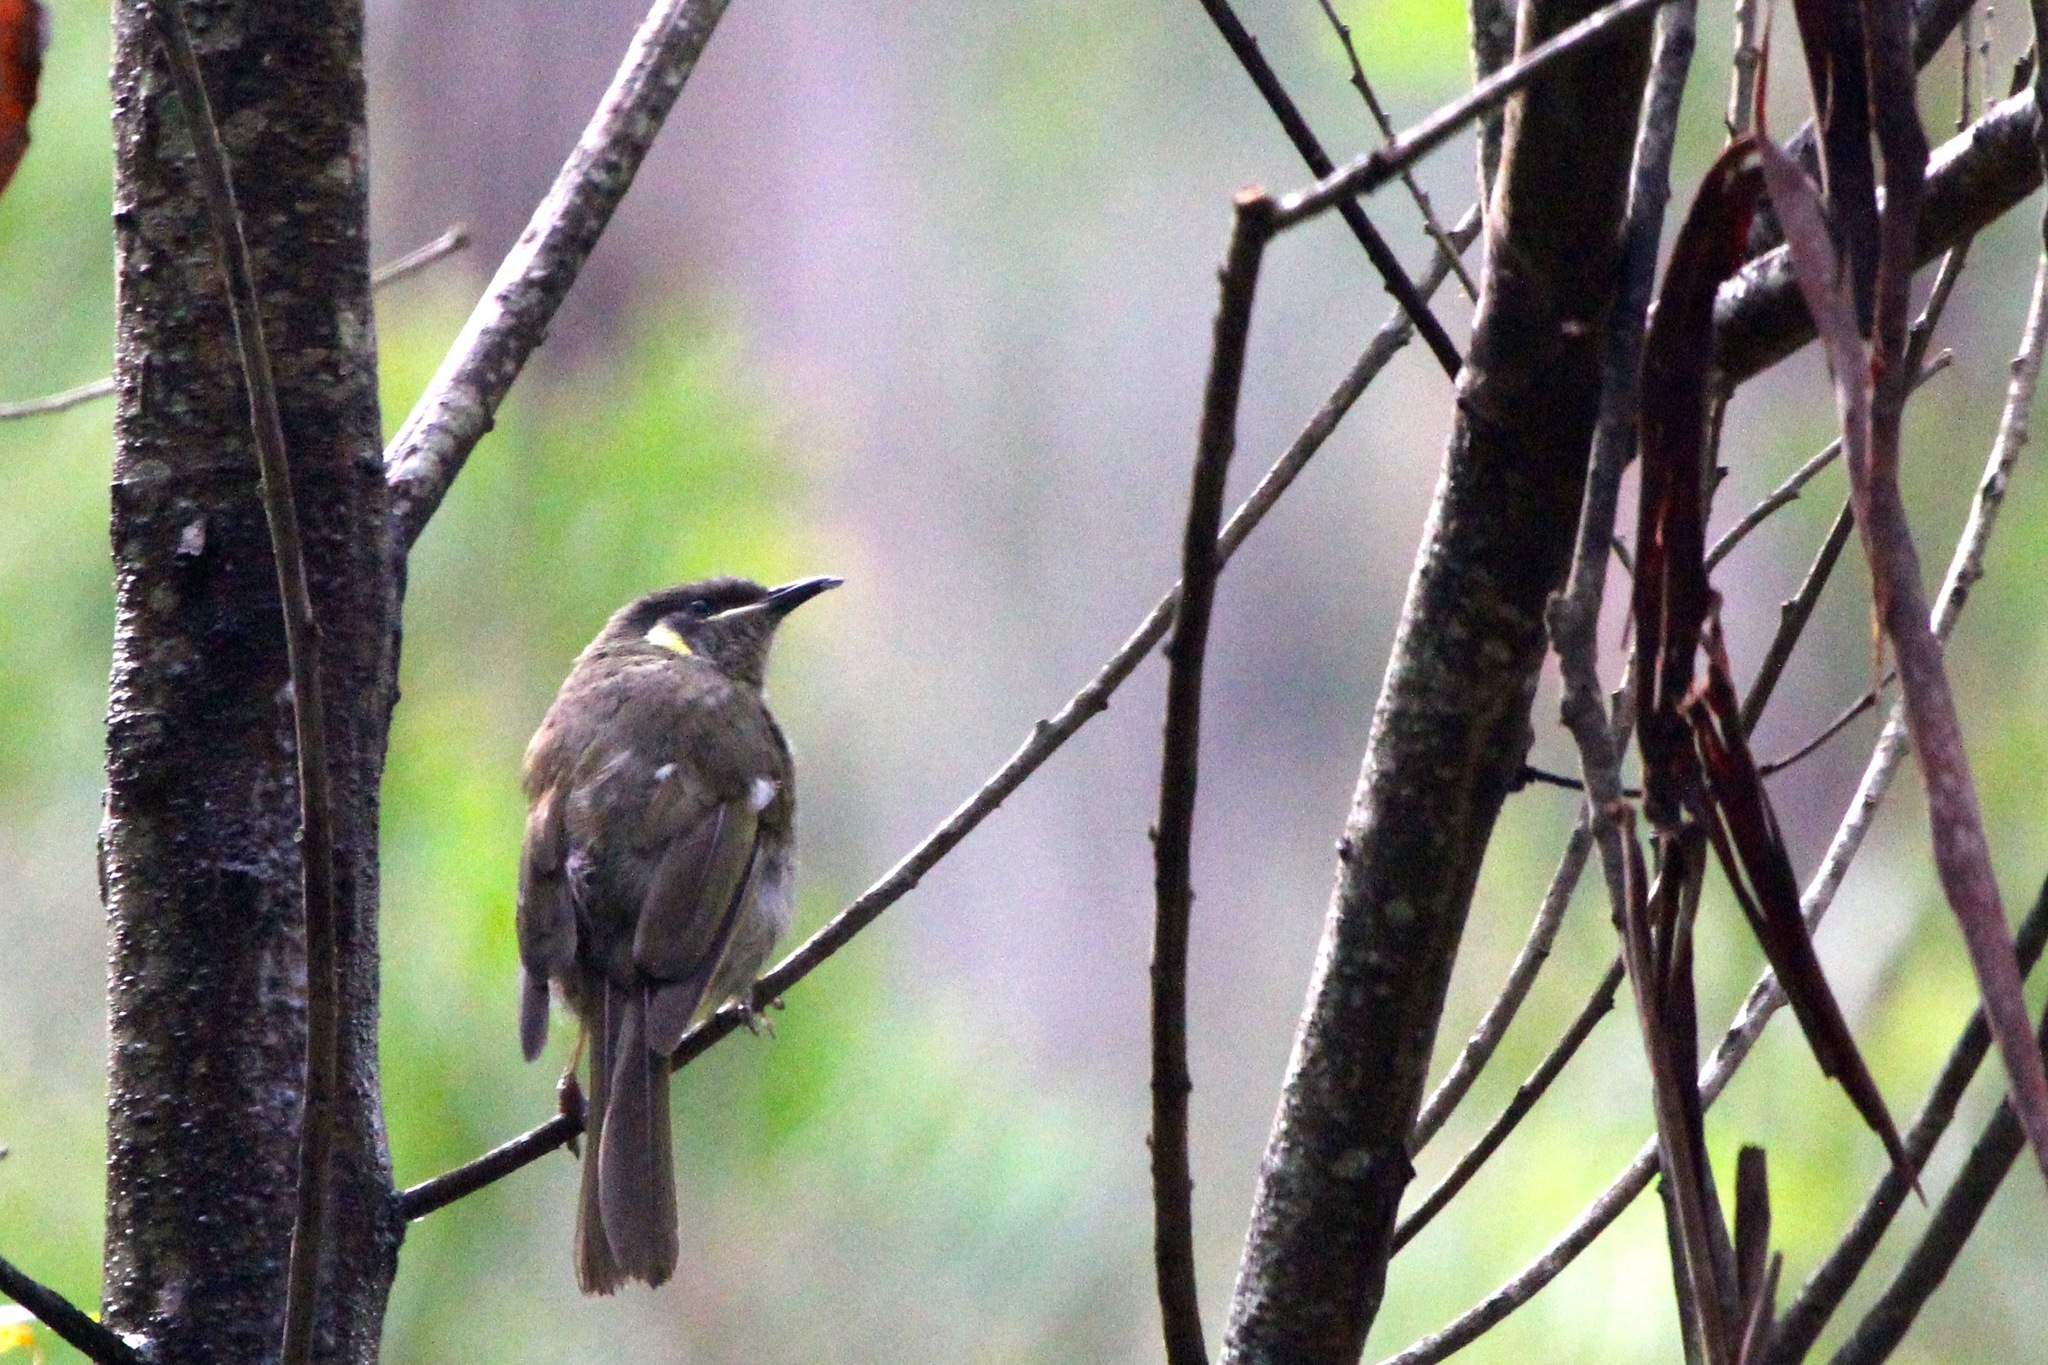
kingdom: Animalia
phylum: Chordata
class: Aves
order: Passeriformes
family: Meliphagidae
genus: Meliphaga
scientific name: Meliphaga lewinii
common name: Lewin's honeyeater
